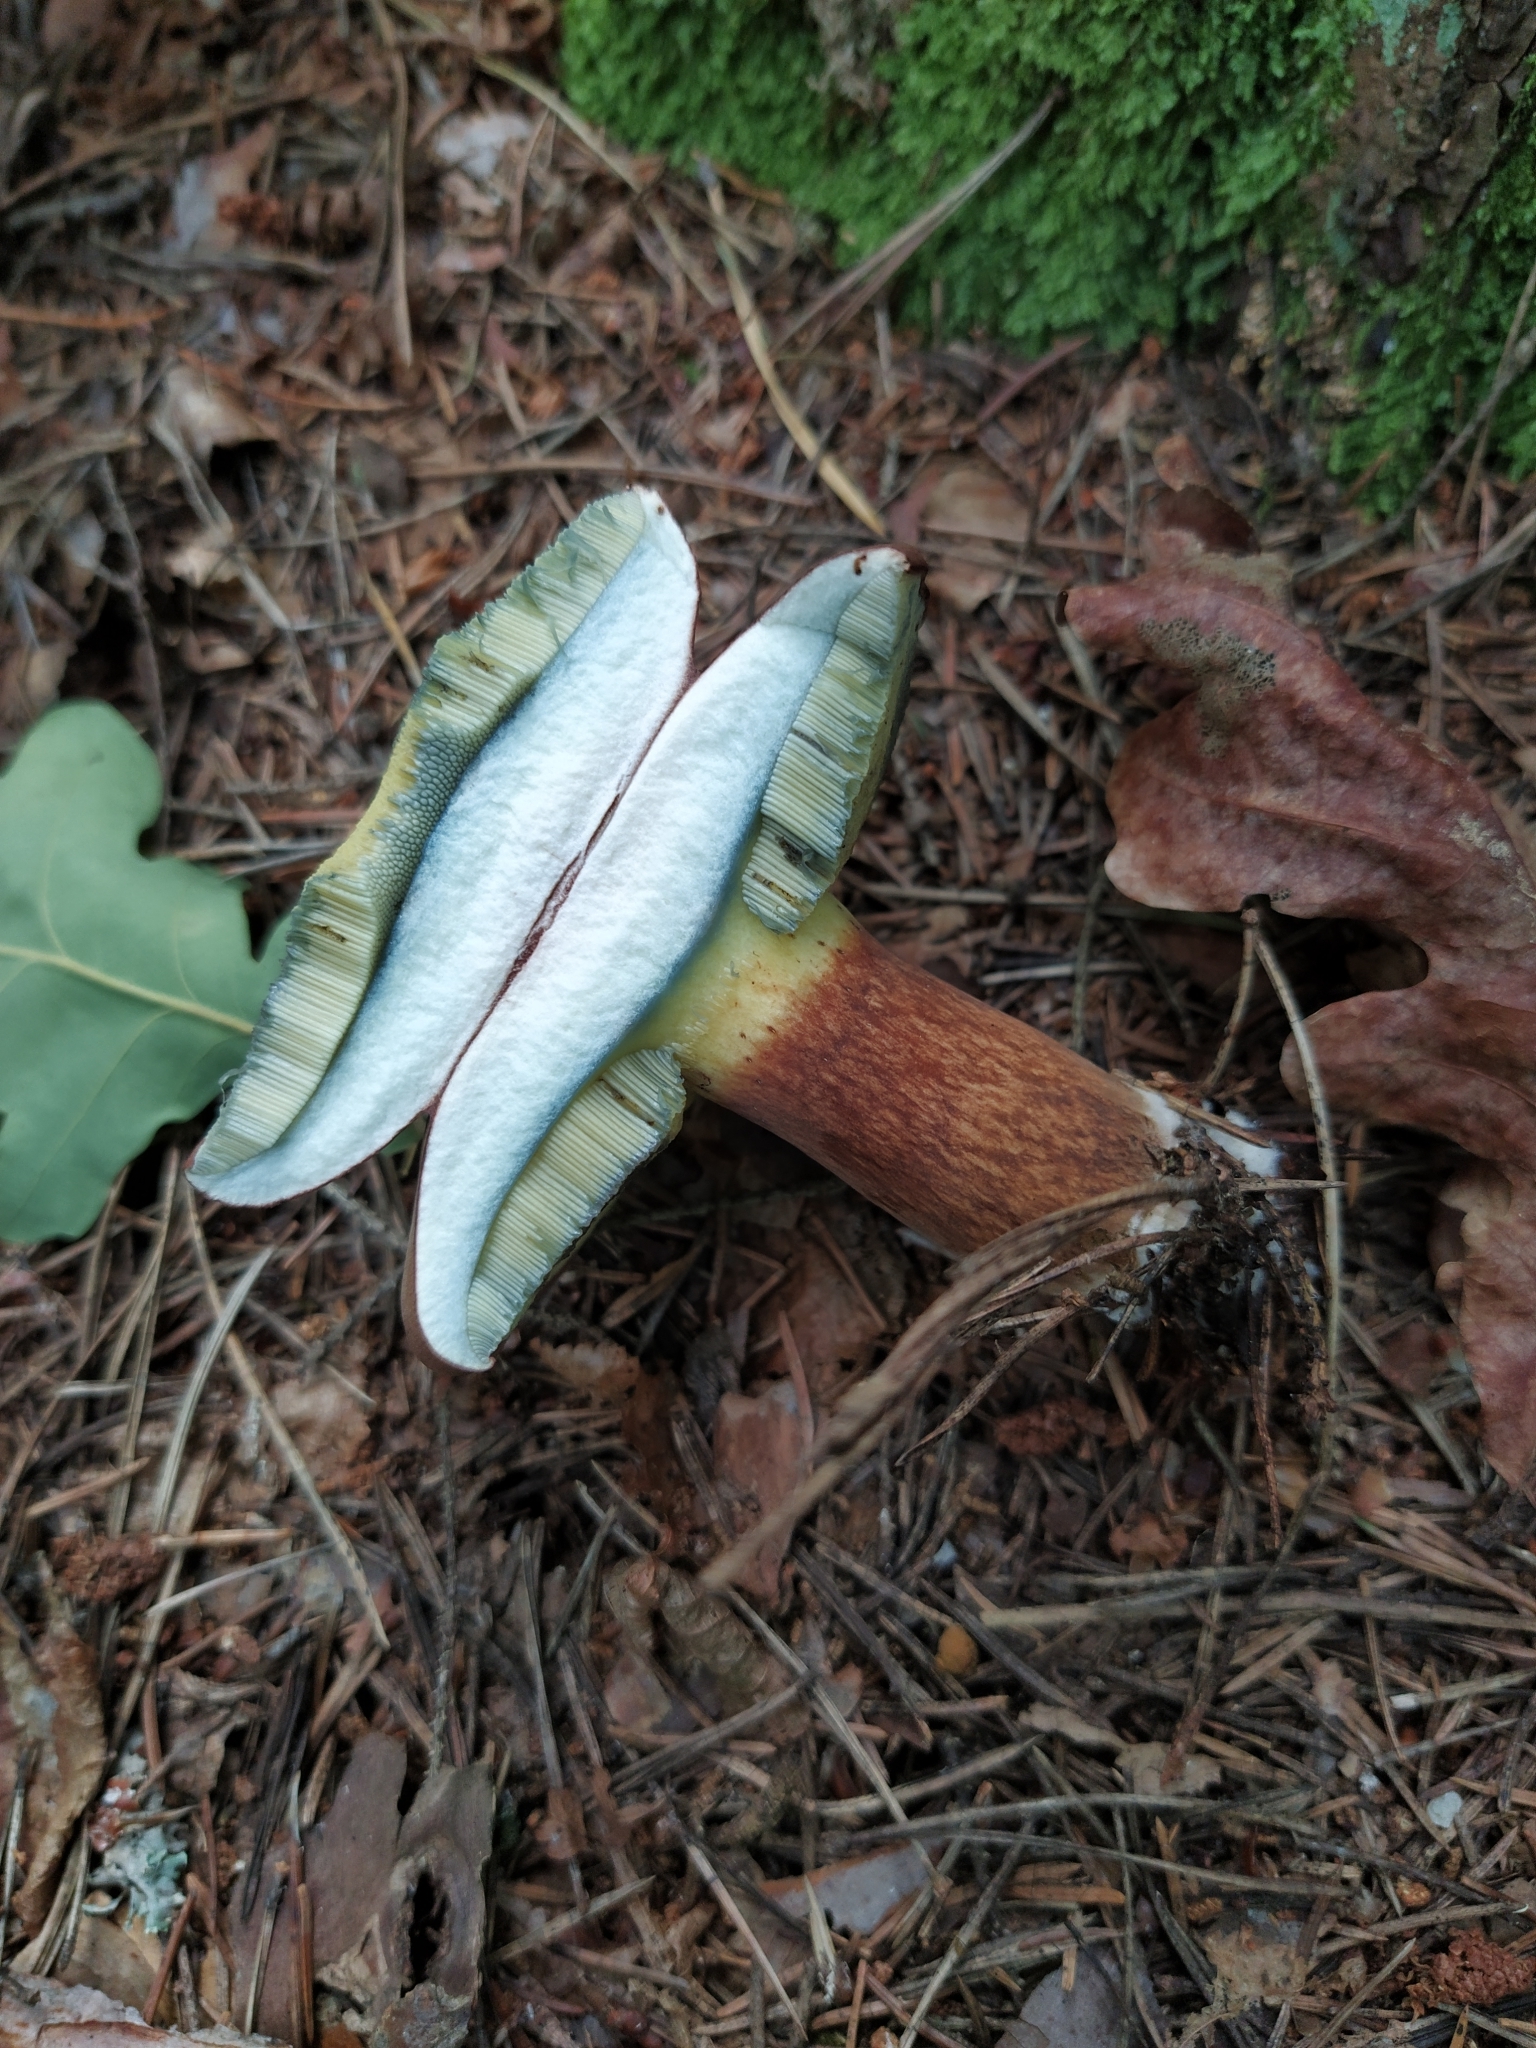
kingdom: Fungi
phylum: Basidiomycota
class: Agaricomycetes
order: Boletales
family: Boletaceae
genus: Imleria
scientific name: Imleria badia
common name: Bay bolete
